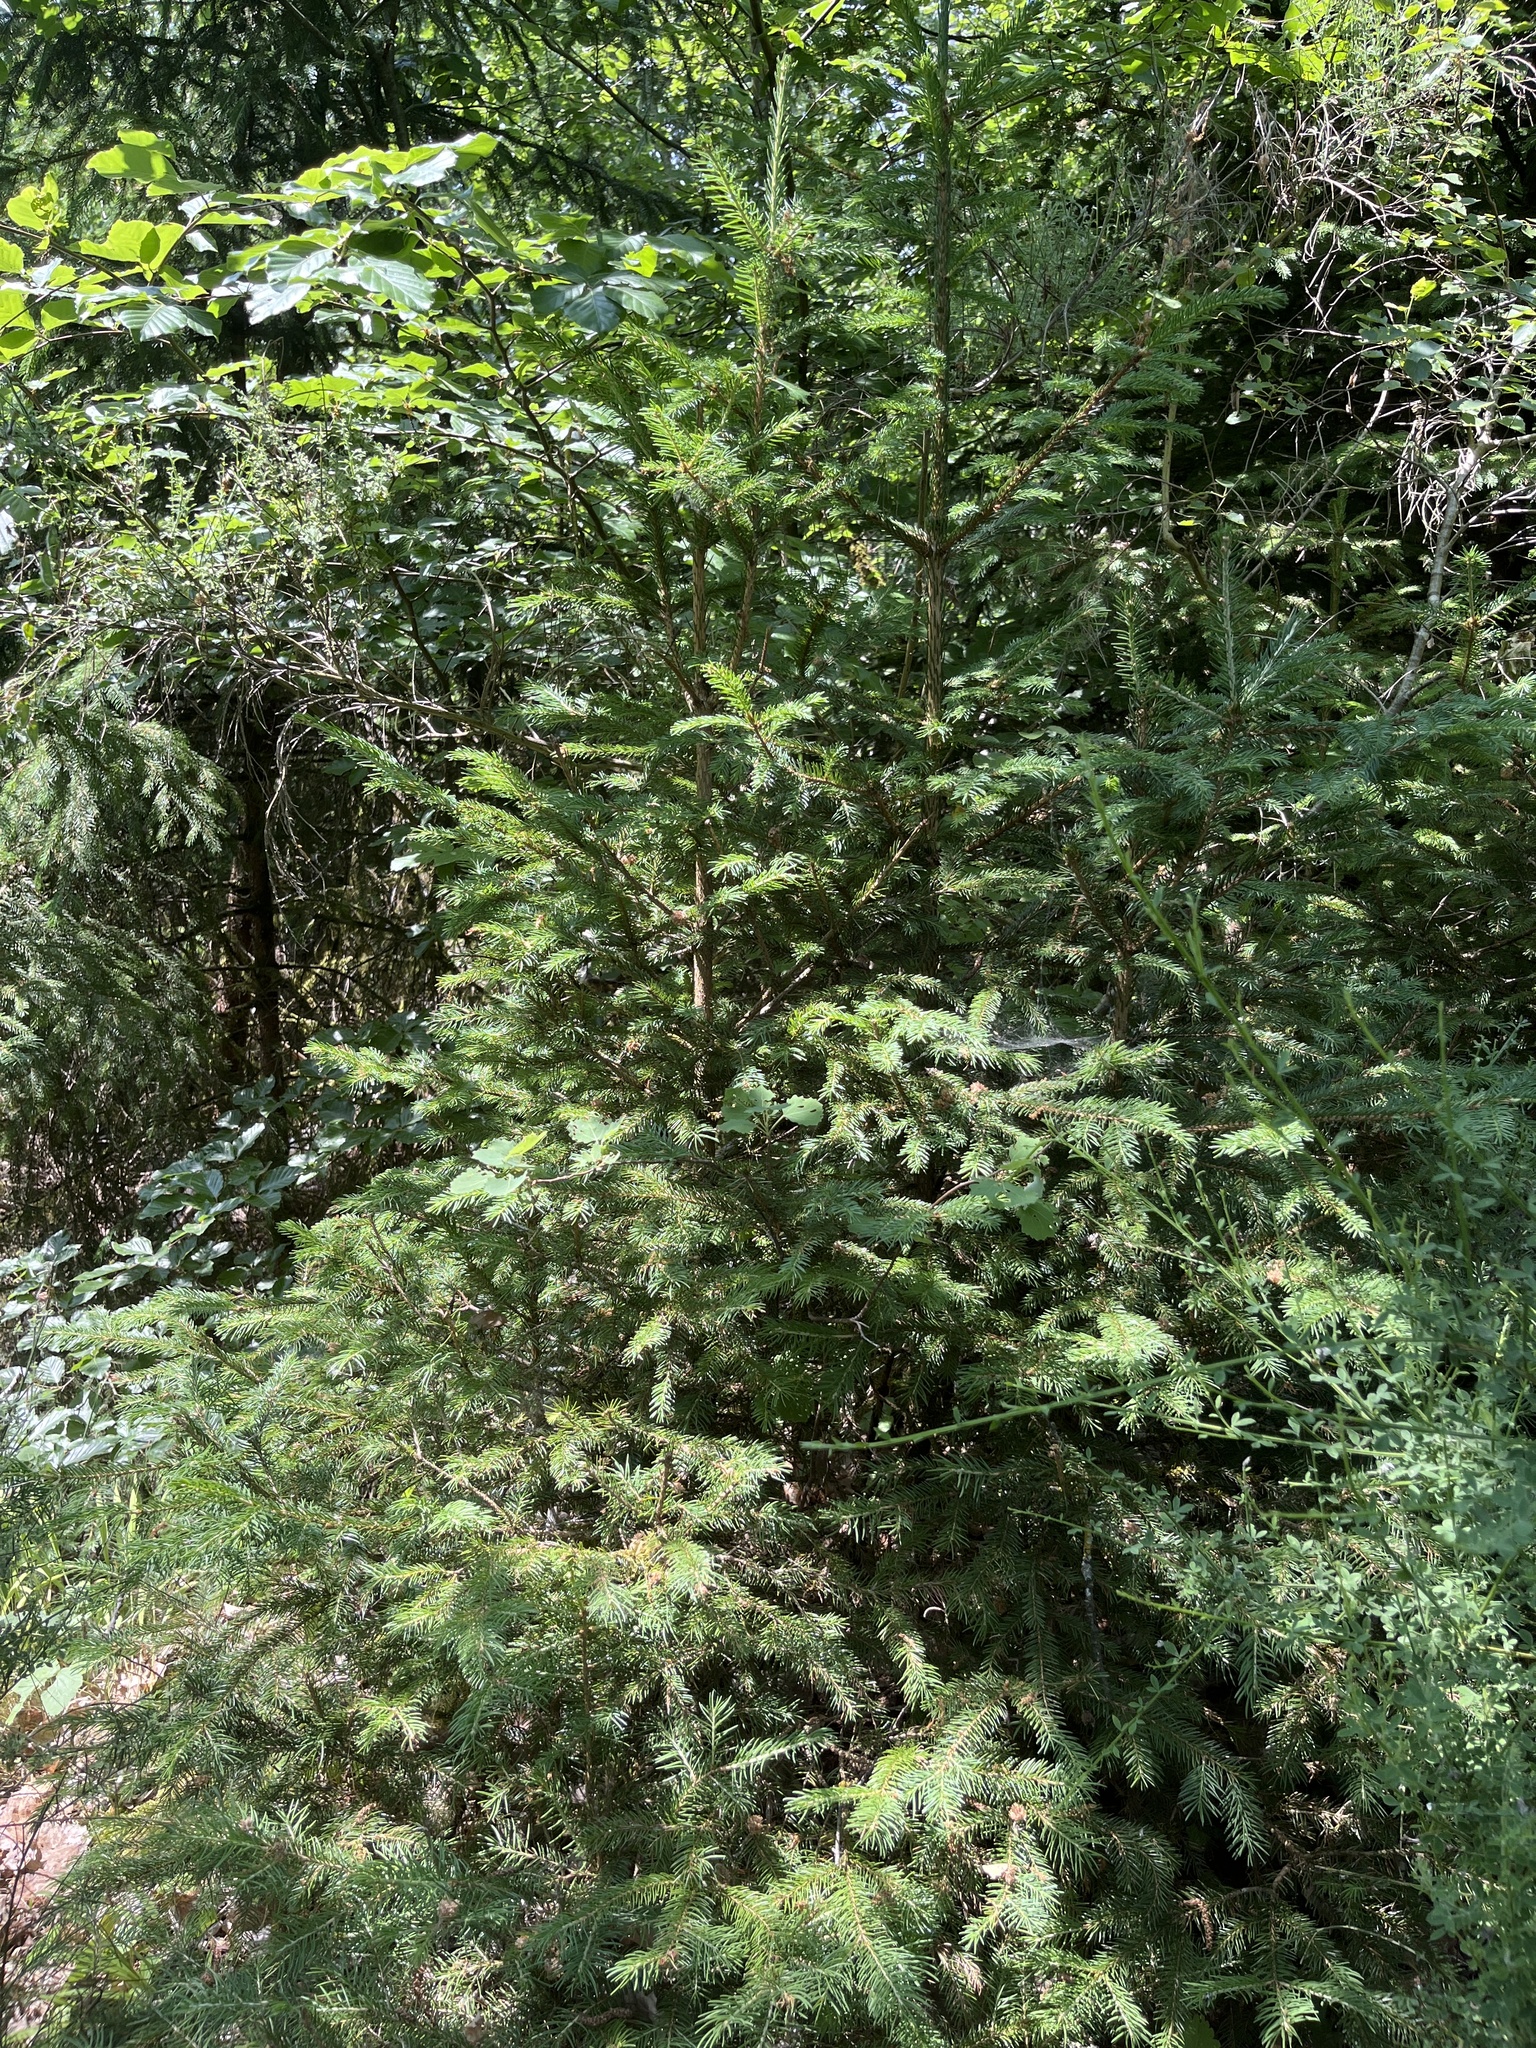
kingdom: Plantae
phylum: Tracheophyta
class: Pinopsida
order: Pinales
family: Pinaceae
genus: Picea
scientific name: Picea abies
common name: Norway spruce
